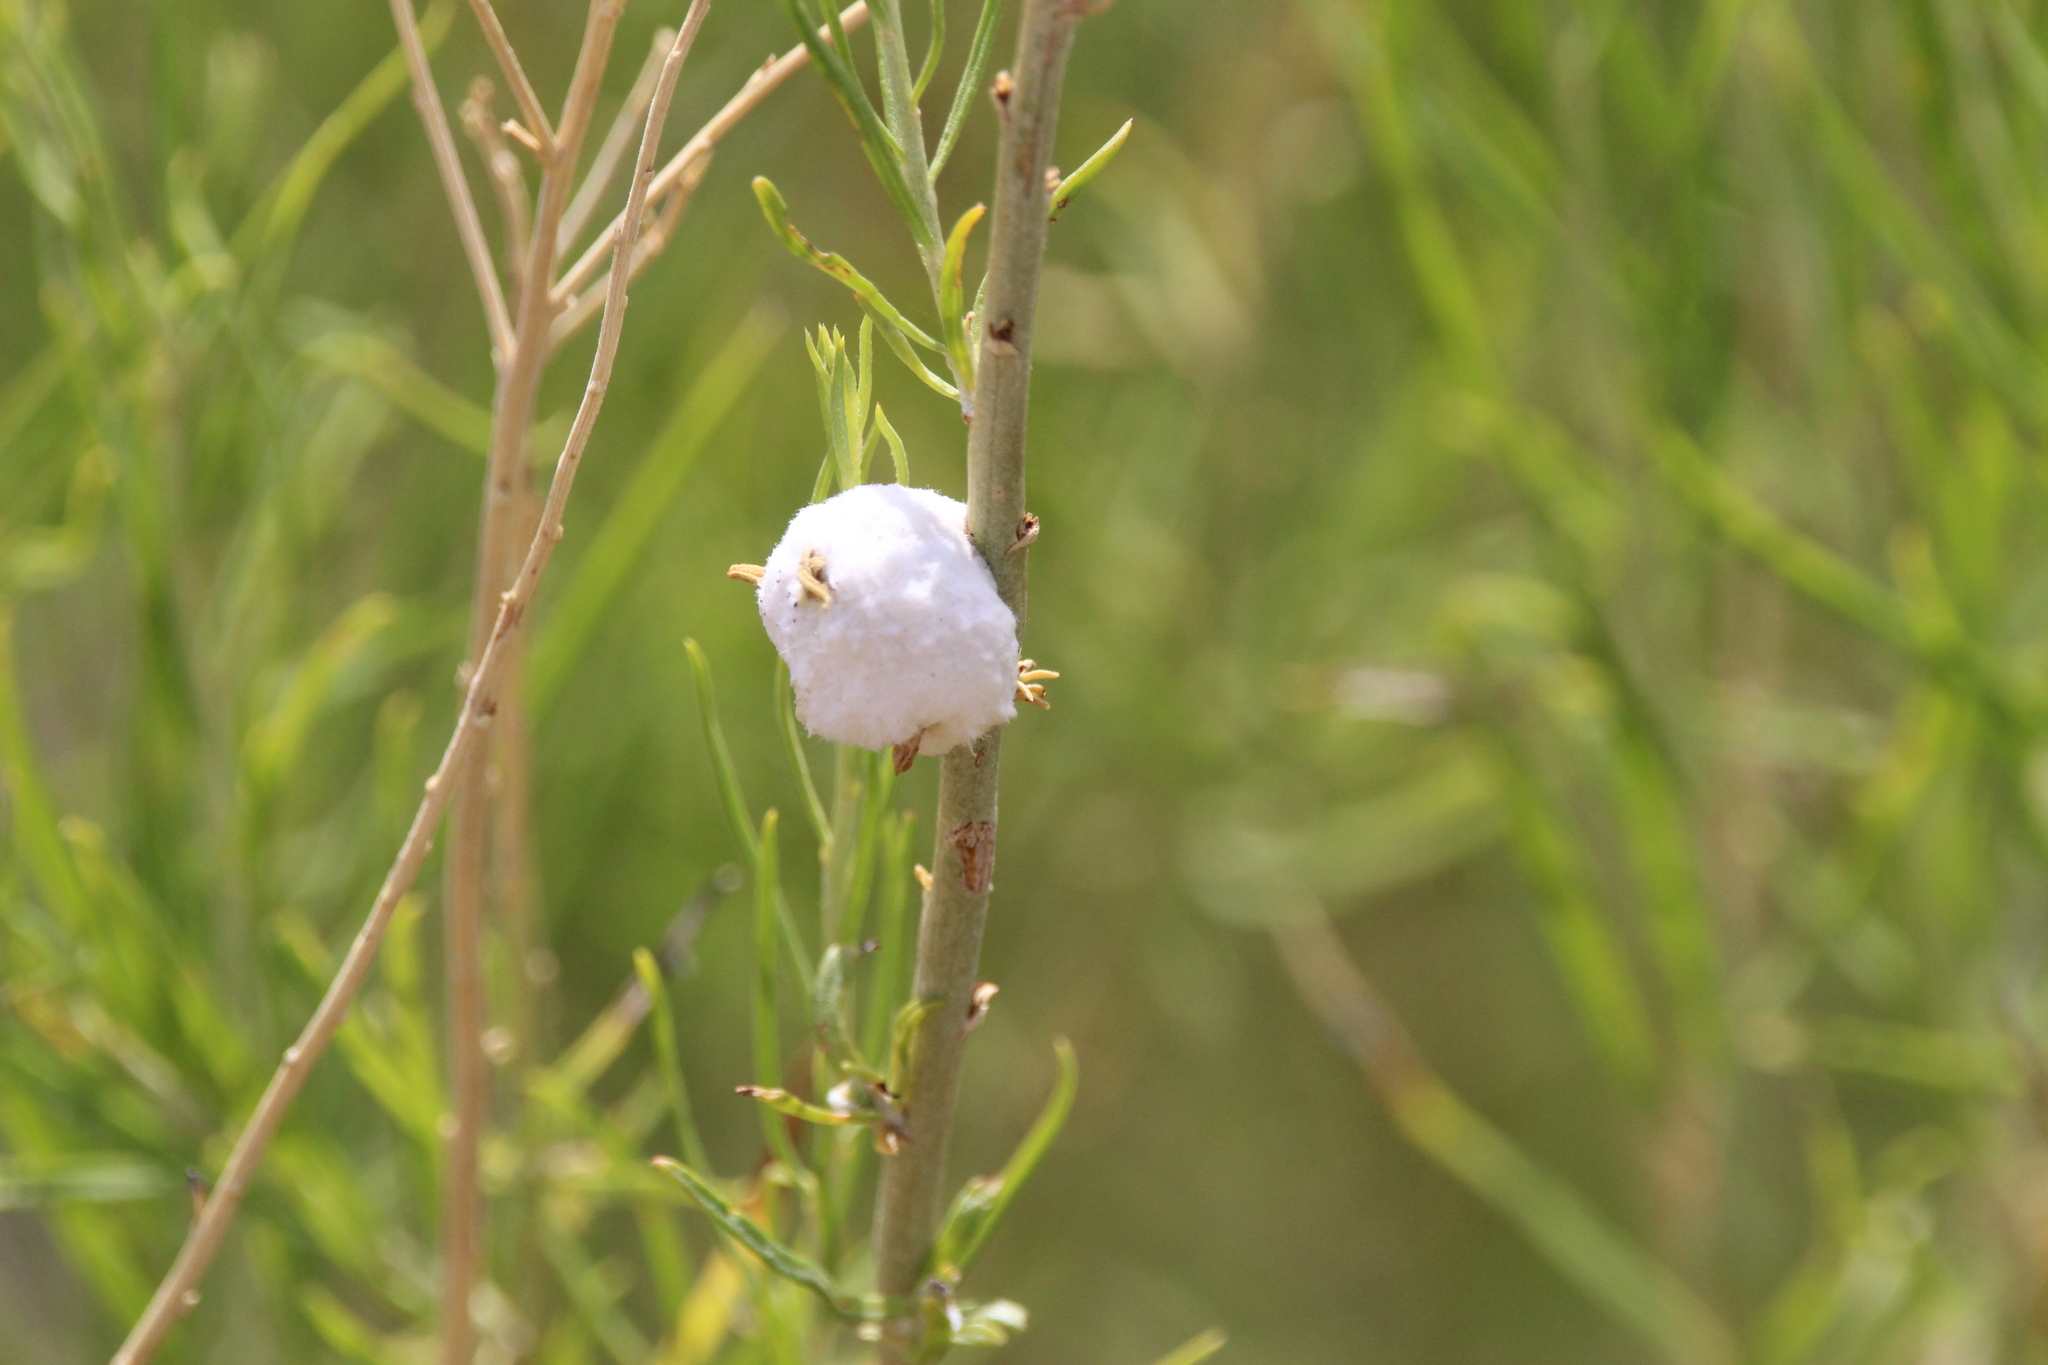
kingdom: Animalia
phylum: Arthropoda
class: Insecta
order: Diptera
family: Tephritidae
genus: Aciurina
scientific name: Aciurina bigeloviae
